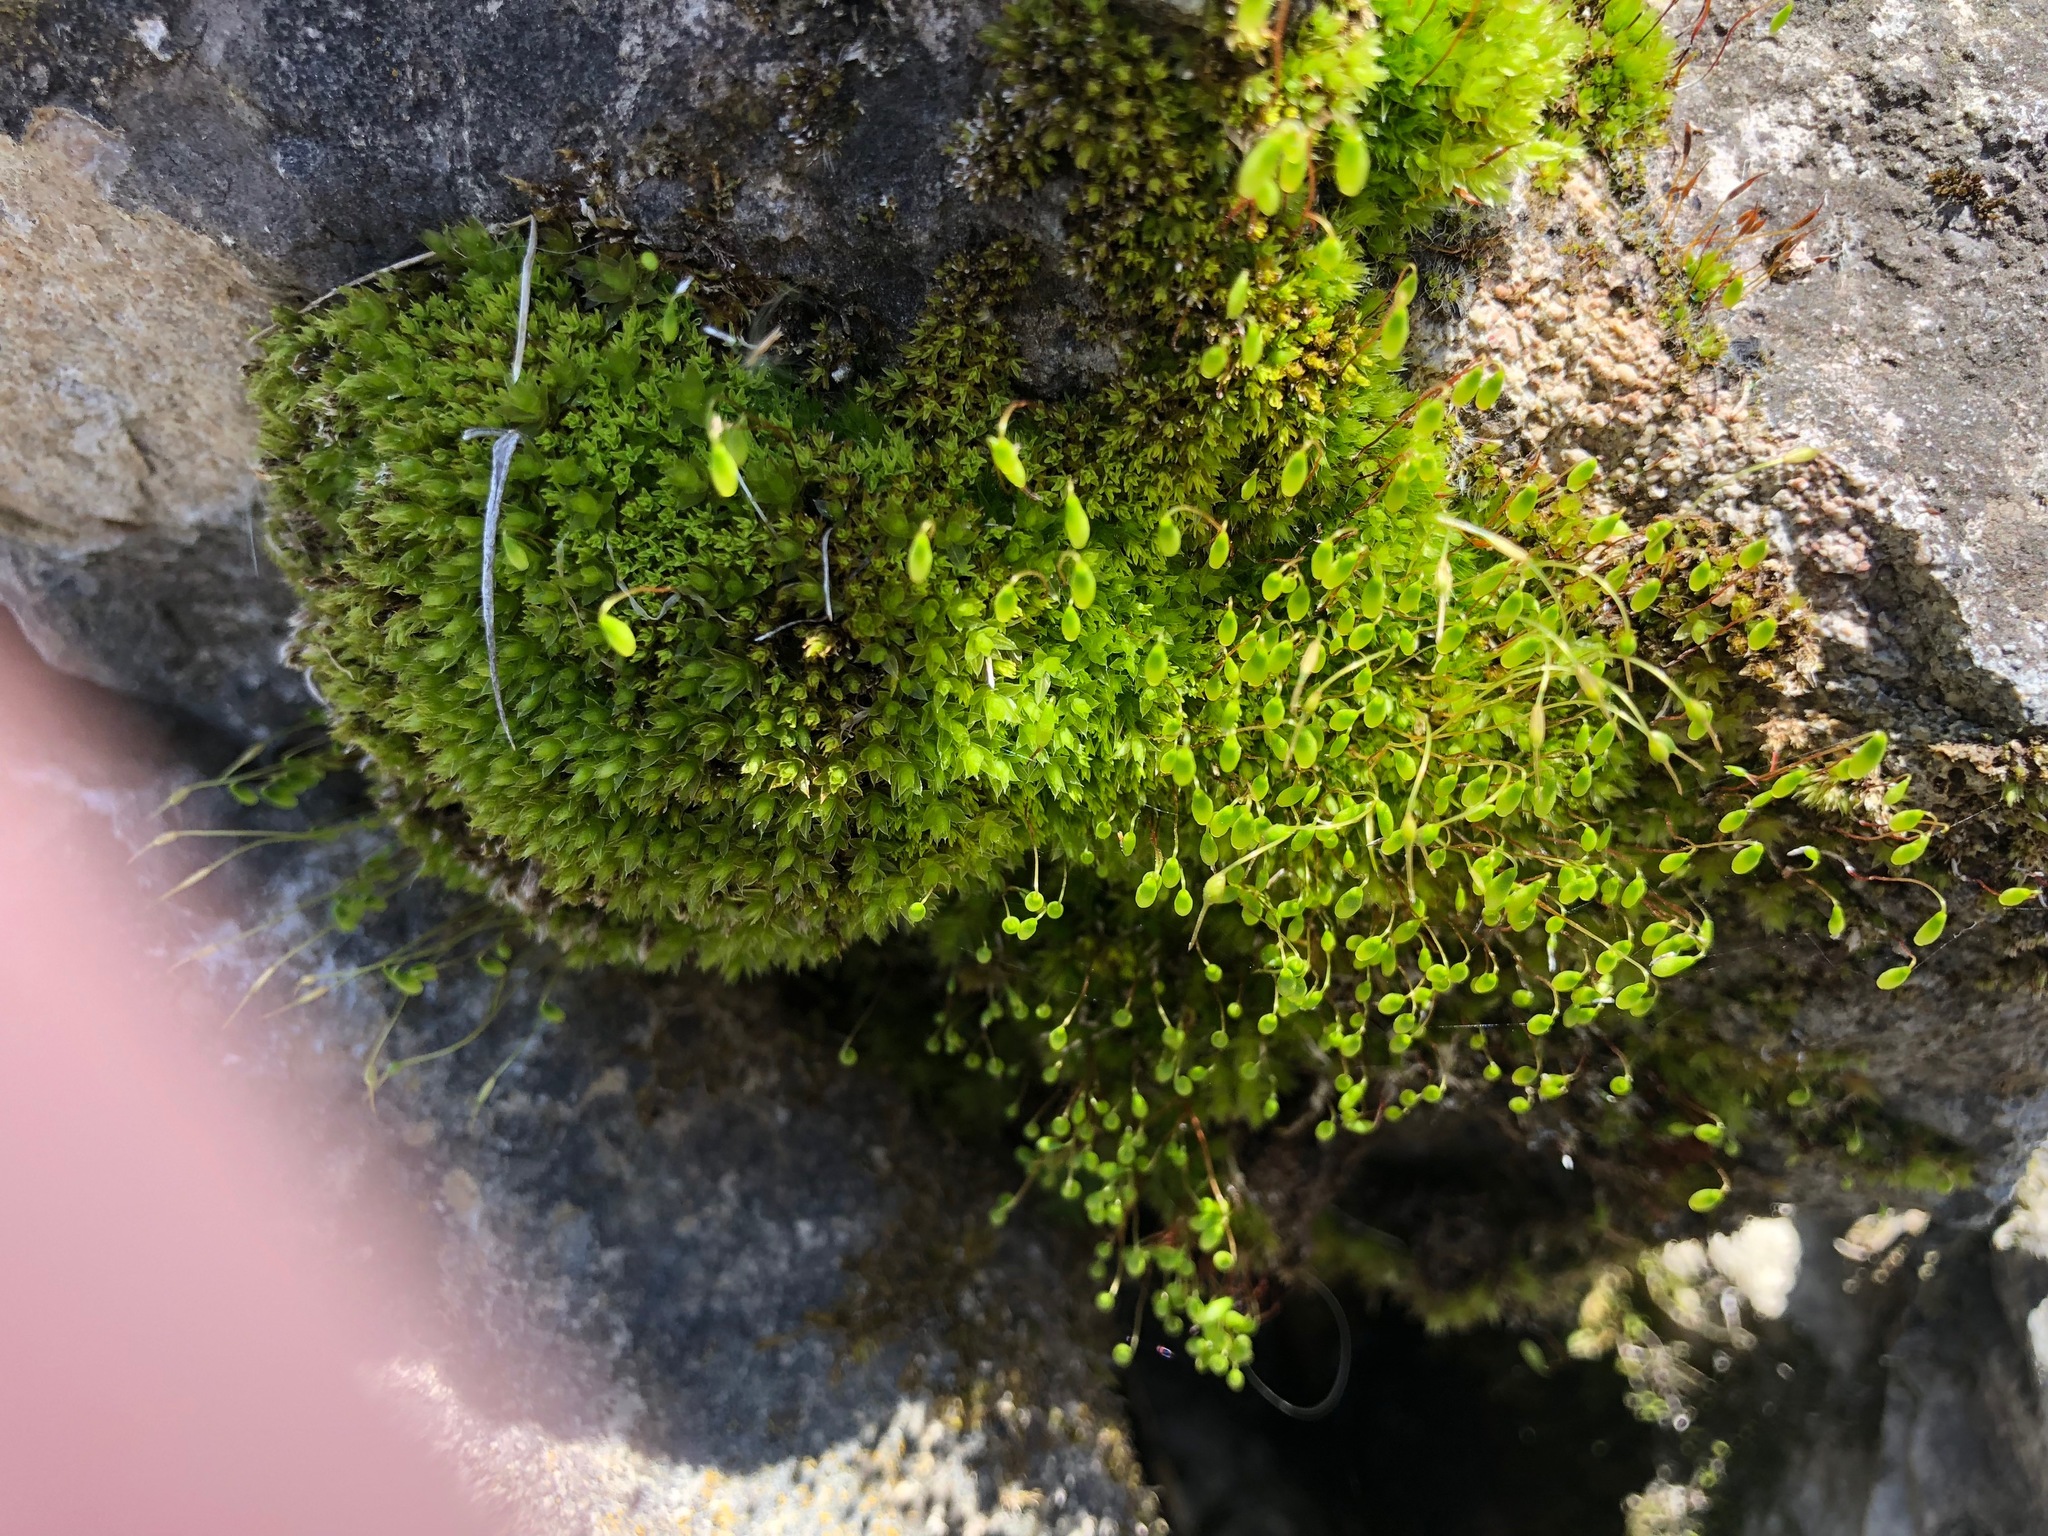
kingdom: Plantae
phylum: Bryophyta
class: Bryopsida
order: Bryales
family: Bryaceae
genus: Rosulabryum
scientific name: Rosulabryum capillare
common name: Capillary thread-moss
